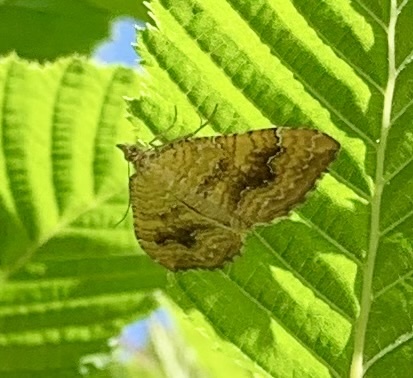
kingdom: Animalia
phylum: Arthropoda
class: Insecta
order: Lepidoptera
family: Geometridae
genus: Camptogramma
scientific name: Camptogramma bilineata
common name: Yellow shell
